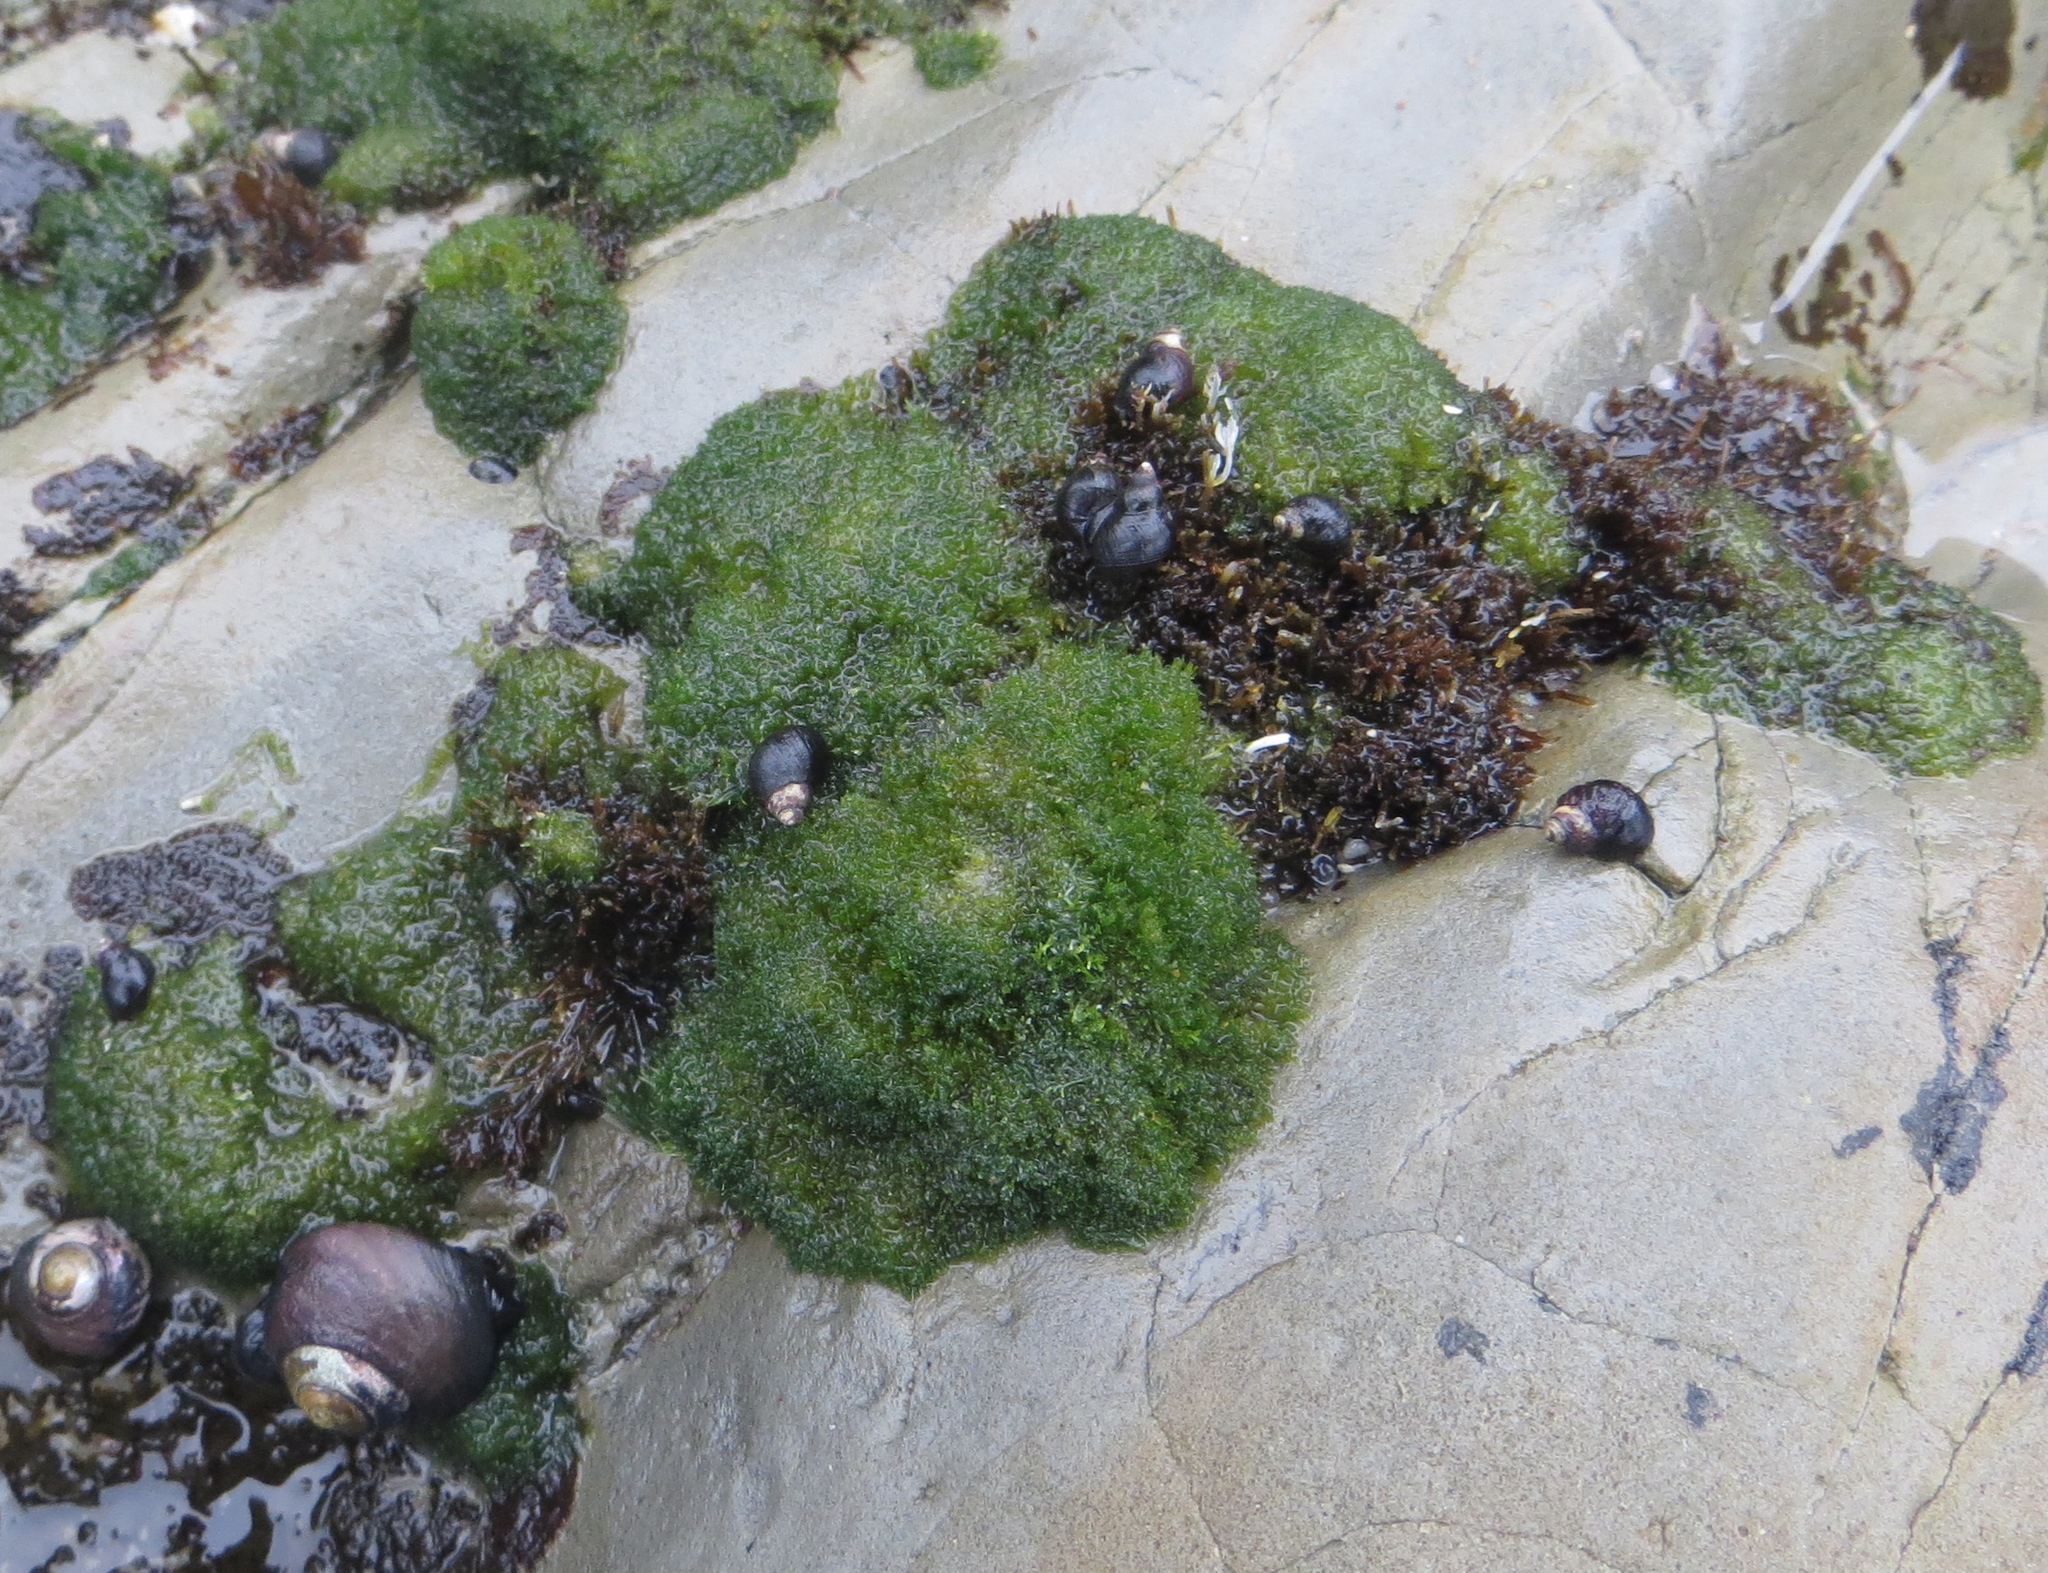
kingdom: Plantae
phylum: Chlorophyta
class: Ulvophyceae
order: Cladophorales
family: Cladophoraceae
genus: Cladophora
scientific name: Cladophora columbiana
